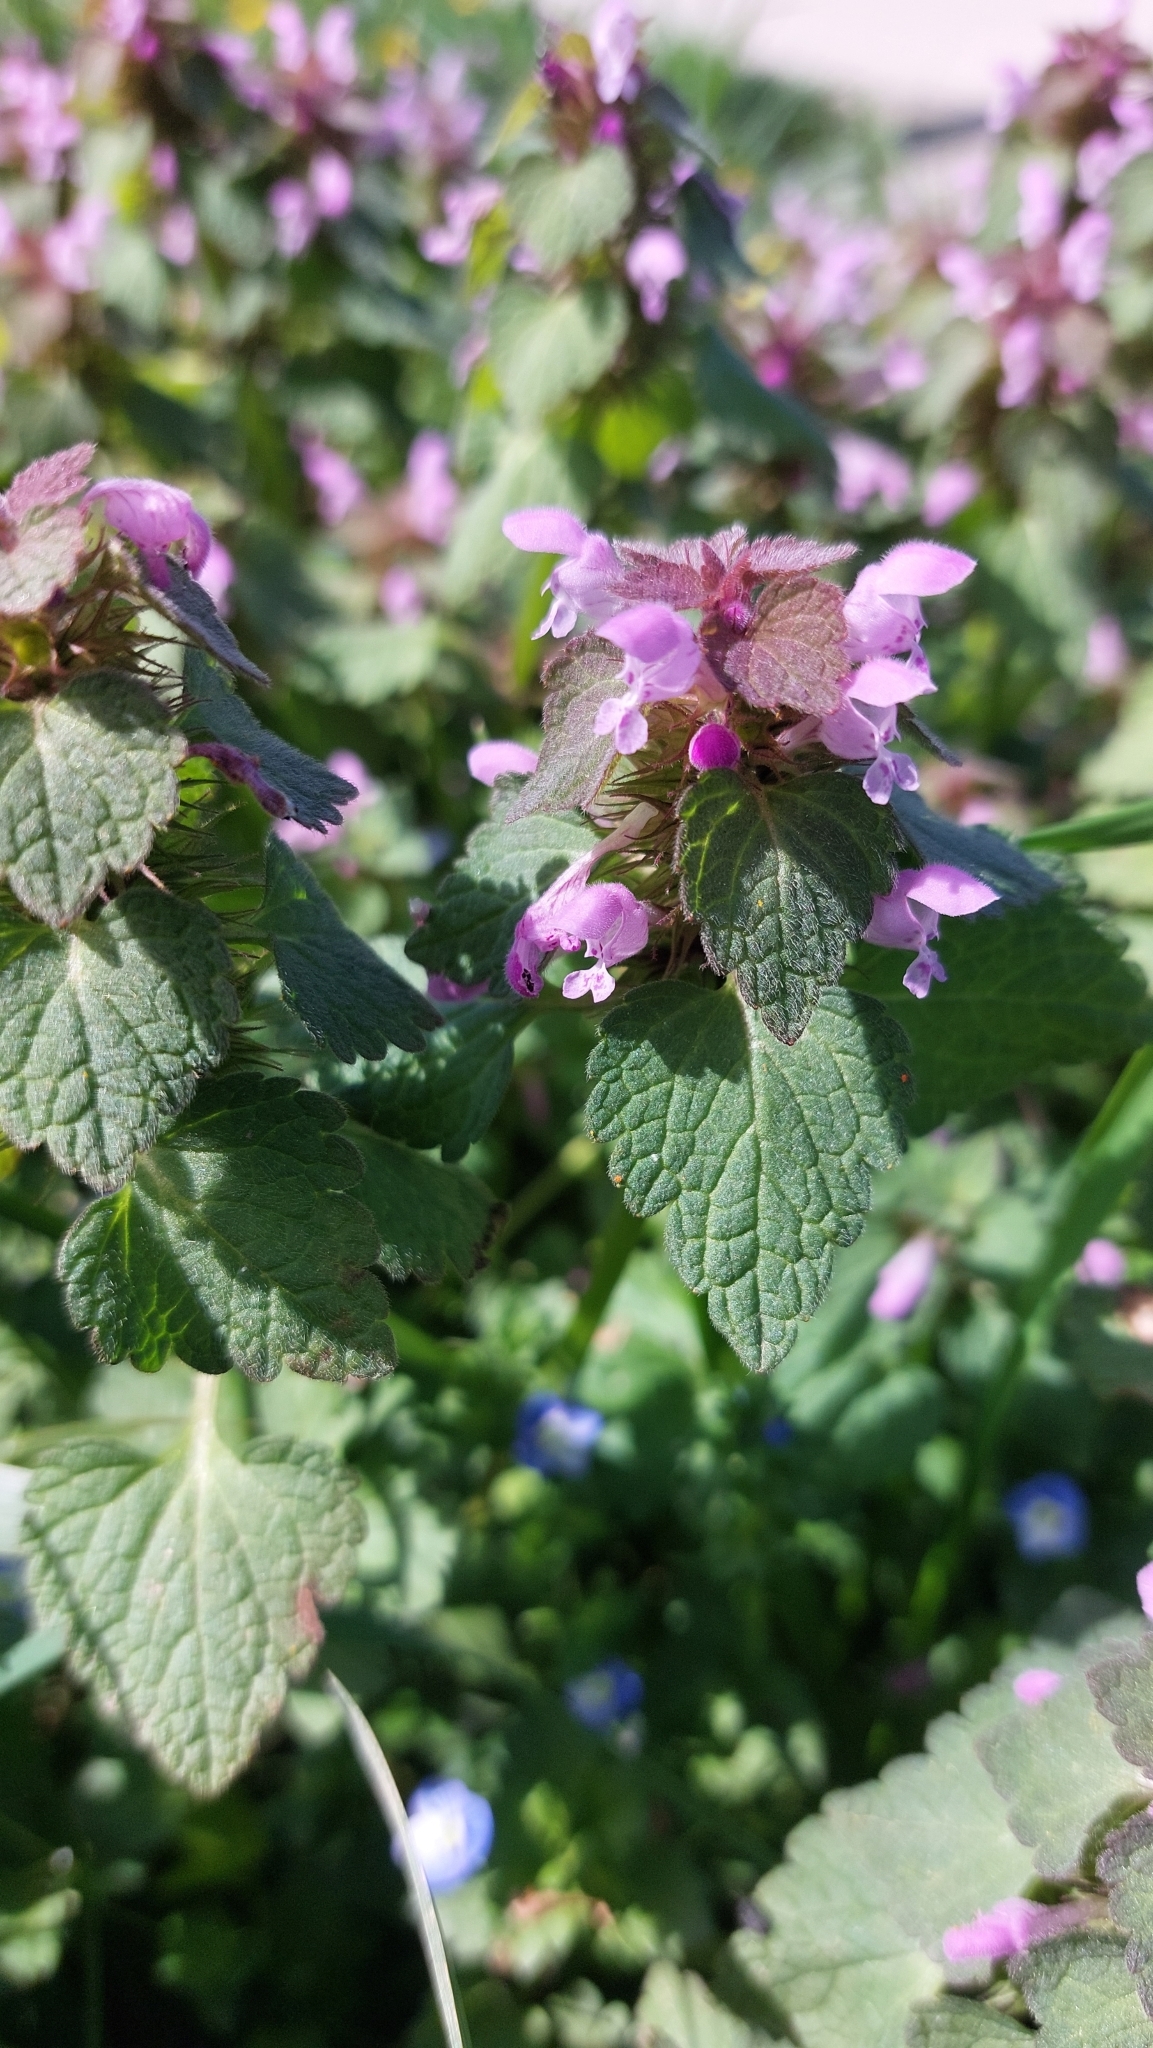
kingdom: Plantae
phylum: Tracheophyta
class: Magnoliopsida
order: Lamiales
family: Lamiaceae
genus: Lamium
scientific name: Lamium purpureum
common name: Red dead-nettle
